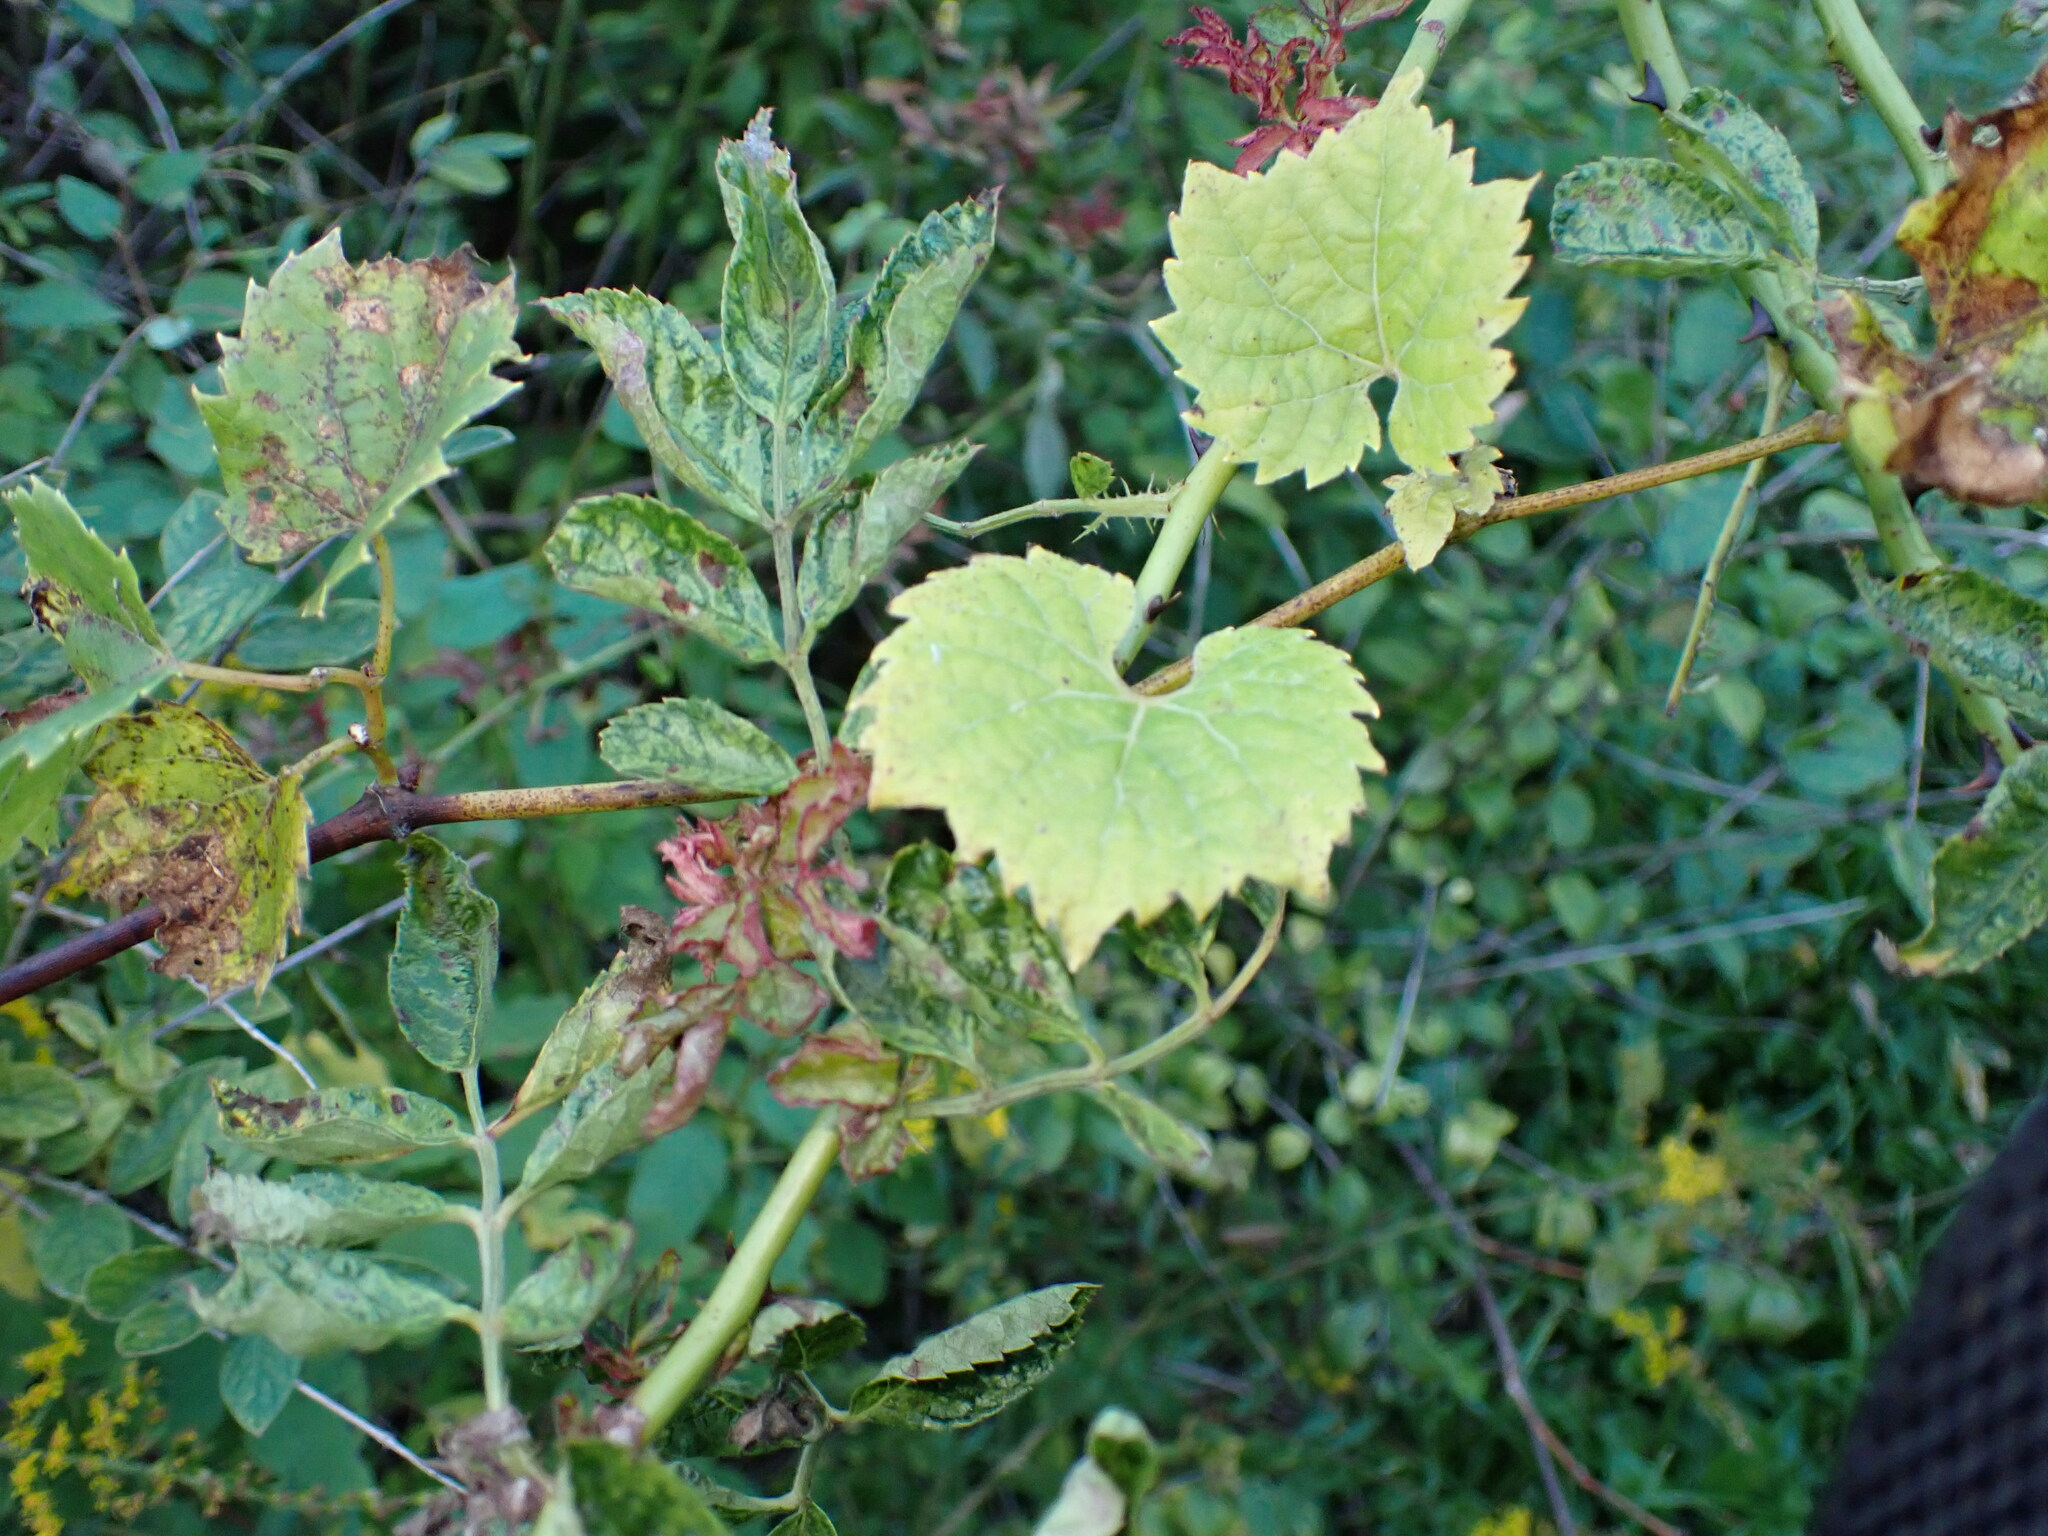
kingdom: Viruses
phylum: Negarnaviricota
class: Ellioviricetes
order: Bunyavirales
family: Fimoviridae
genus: Emaravirus
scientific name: Emaravirus rosae
